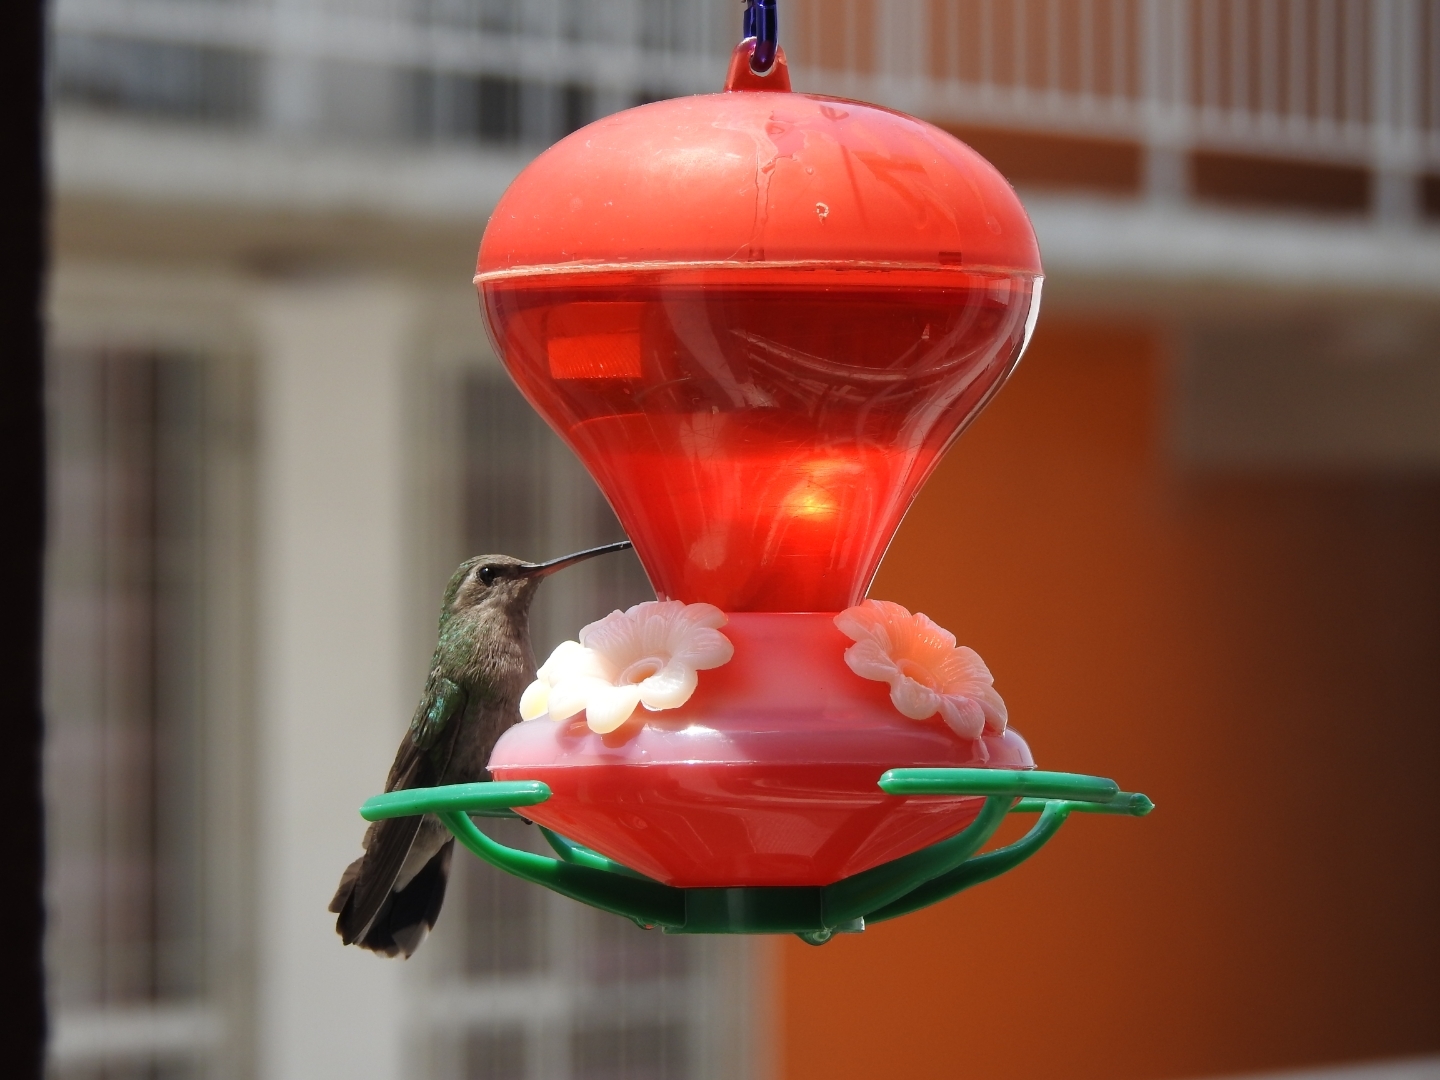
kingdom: Animalia
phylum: Chordata
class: Aves
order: Apodiformes
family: Trochilidae
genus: Cynanthus
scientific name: Cynanthus latirostris
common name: Broad-billed hummingbird
